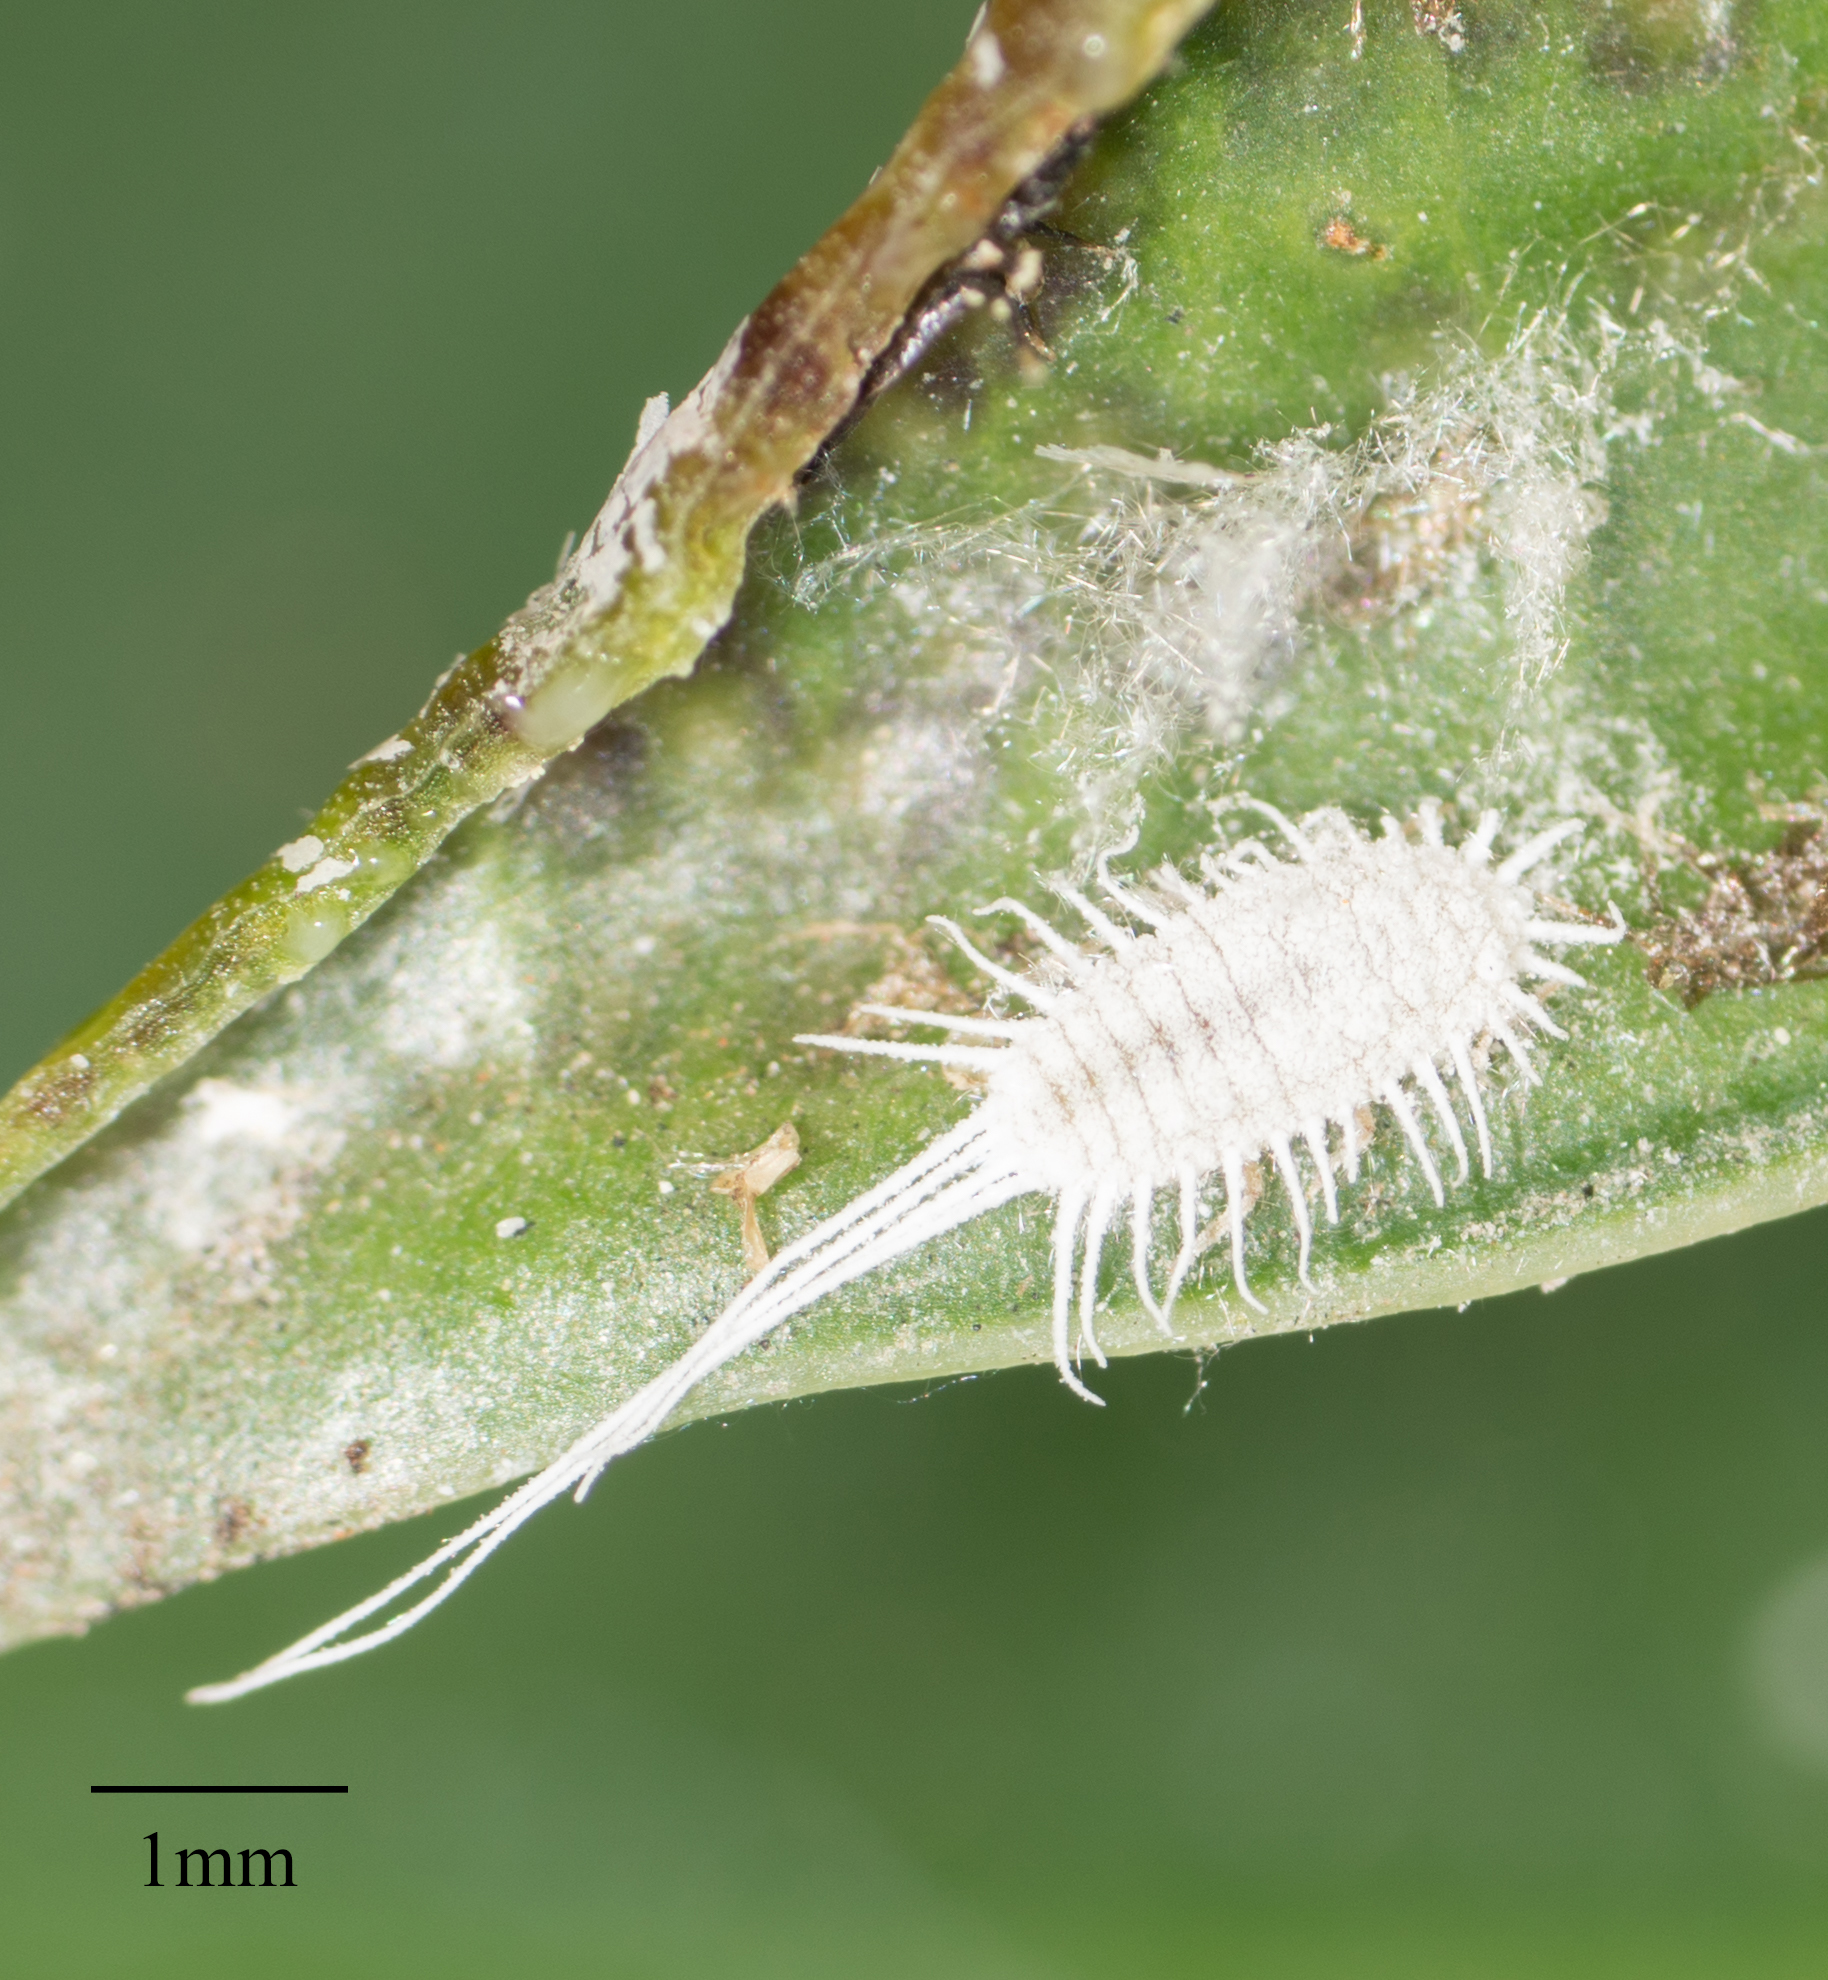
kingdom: Animalia
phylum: Arthropoda
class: Insecta
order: Hemiptera
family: Pseudococcidae
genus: Pseudococcus
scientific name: Pseudococcus longispinus
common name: Long-tailed mealybug
